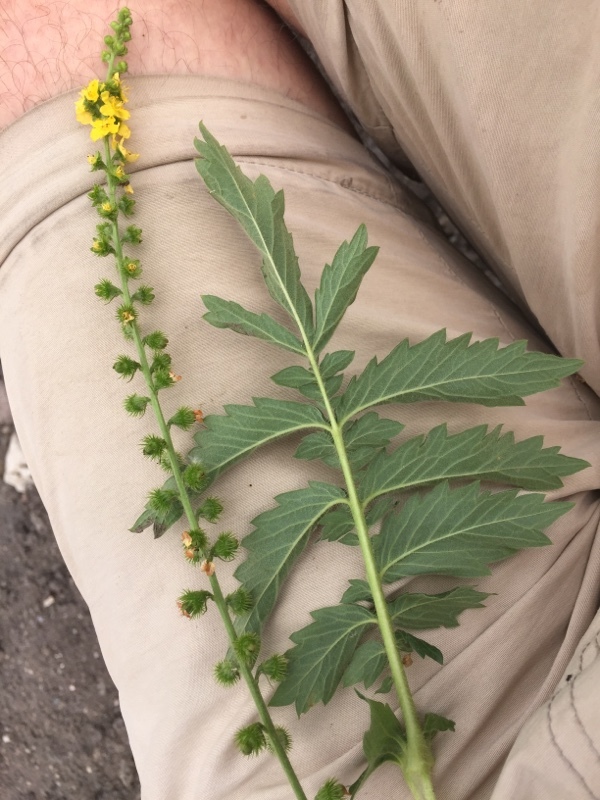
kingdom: Plantae
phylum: Tracheophyta
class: Magnoliopsida
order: Rosales
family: Rosaceae
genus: Agrimonia
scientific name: Agrimonia eupatoria
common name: Agrimony
